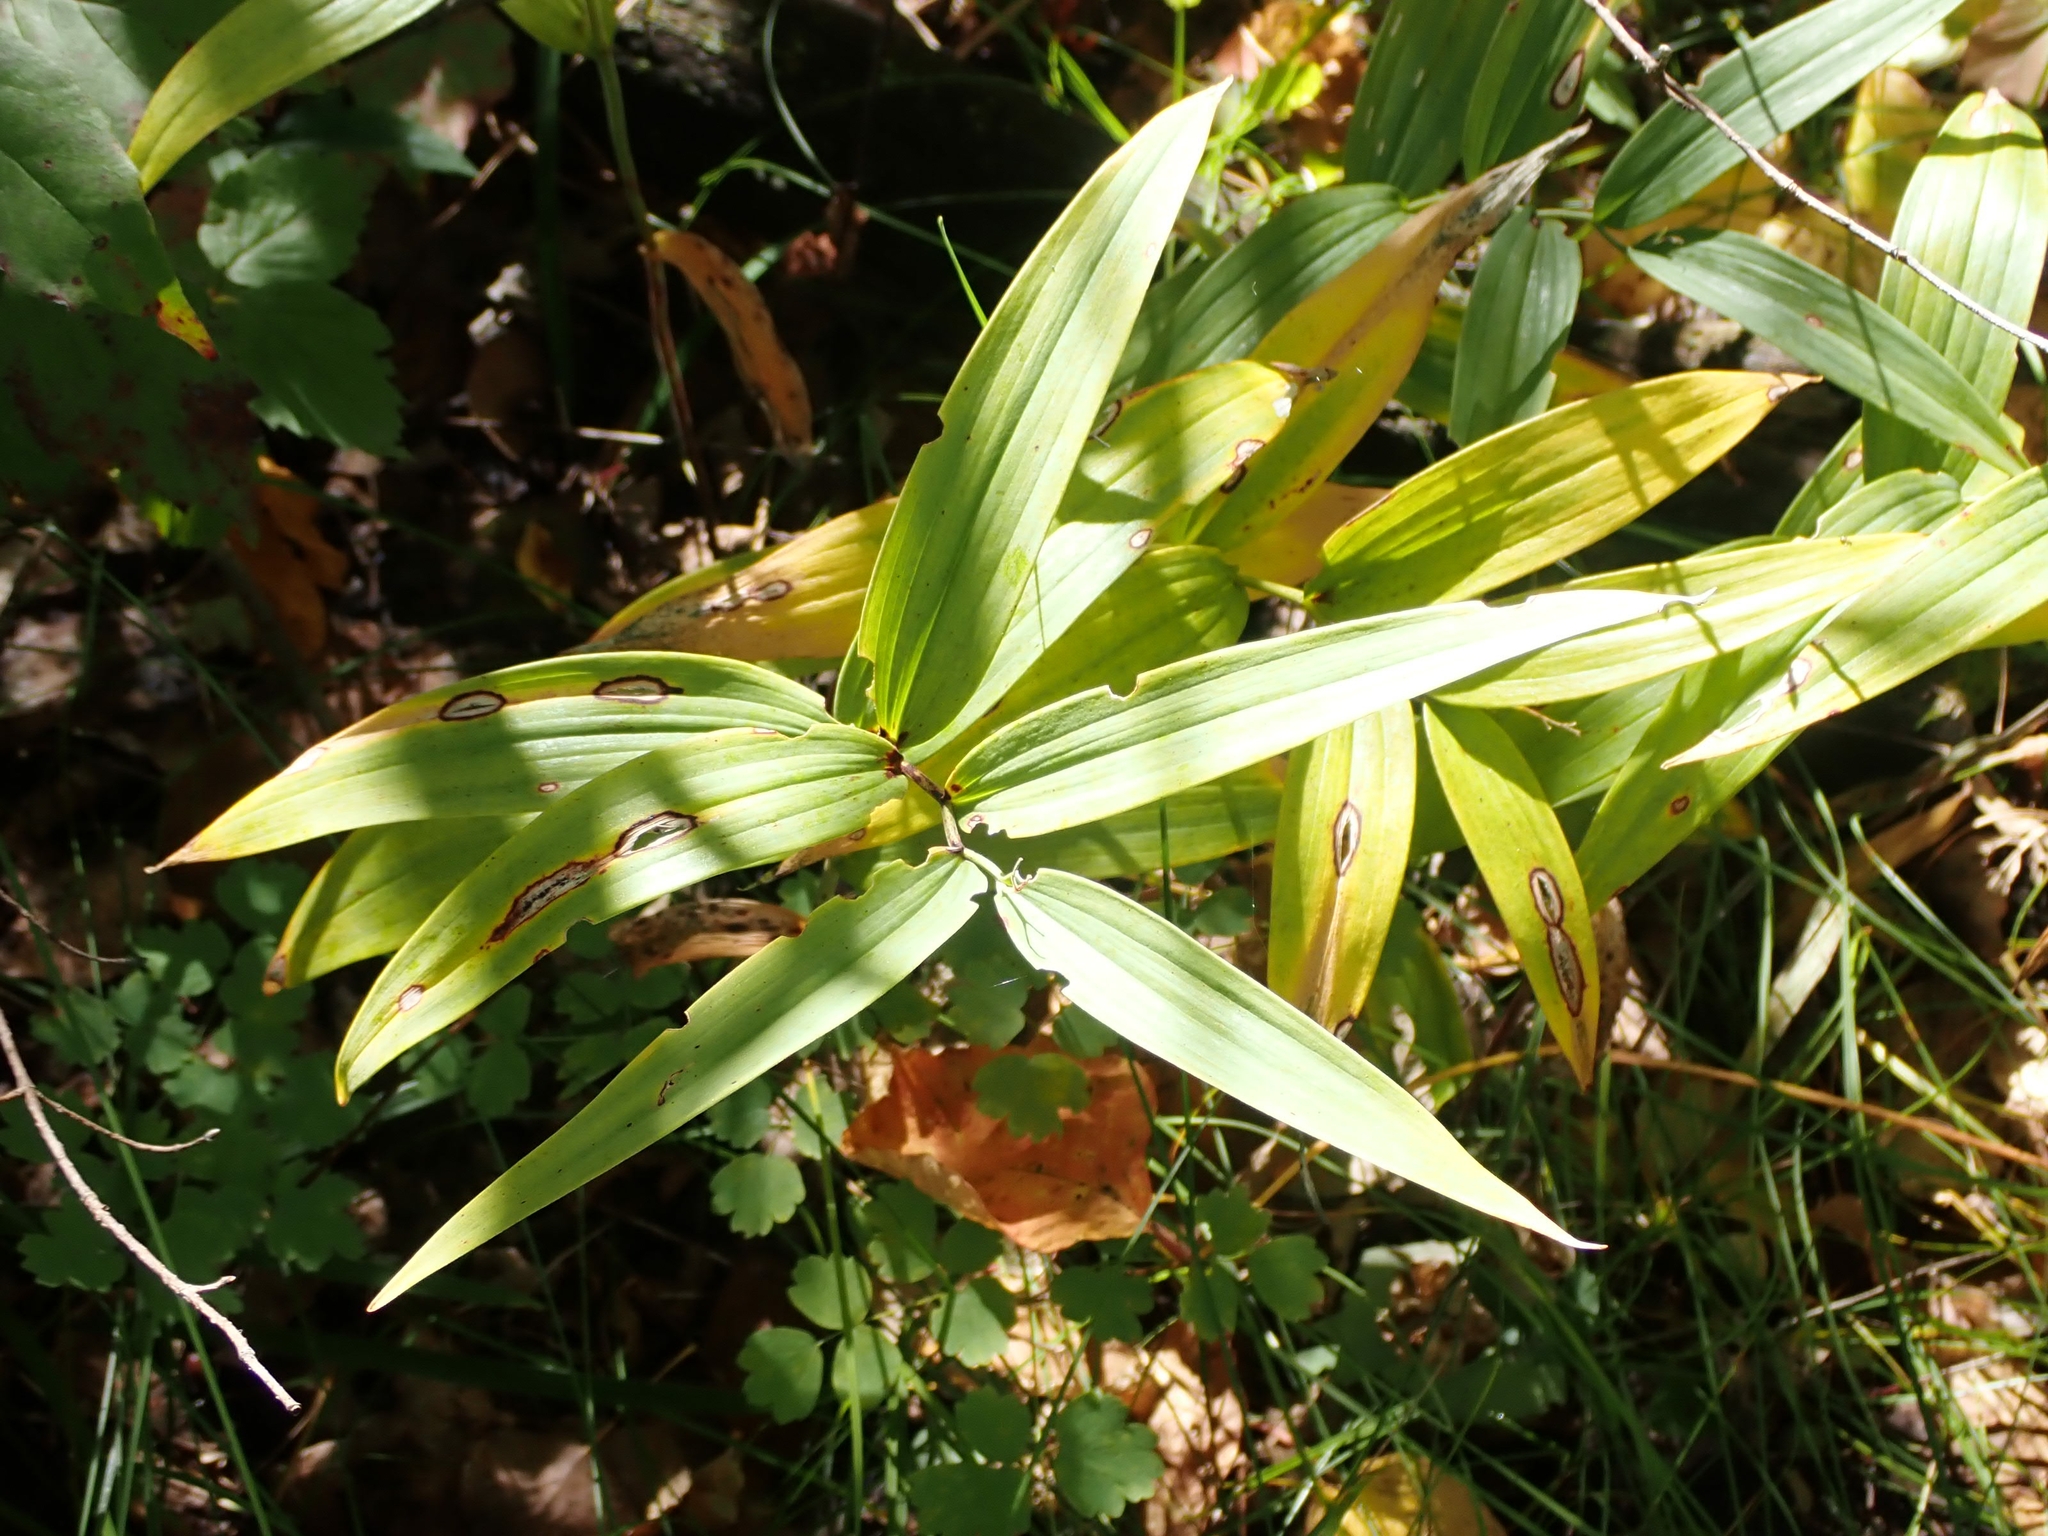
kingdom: Plantae
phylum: Tracheophyta
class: Liliopsida
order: Asparagales
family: Asparagaceae
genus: Maianthemum
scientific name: Maianthemum stellatum
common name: Little false solomon's seal
